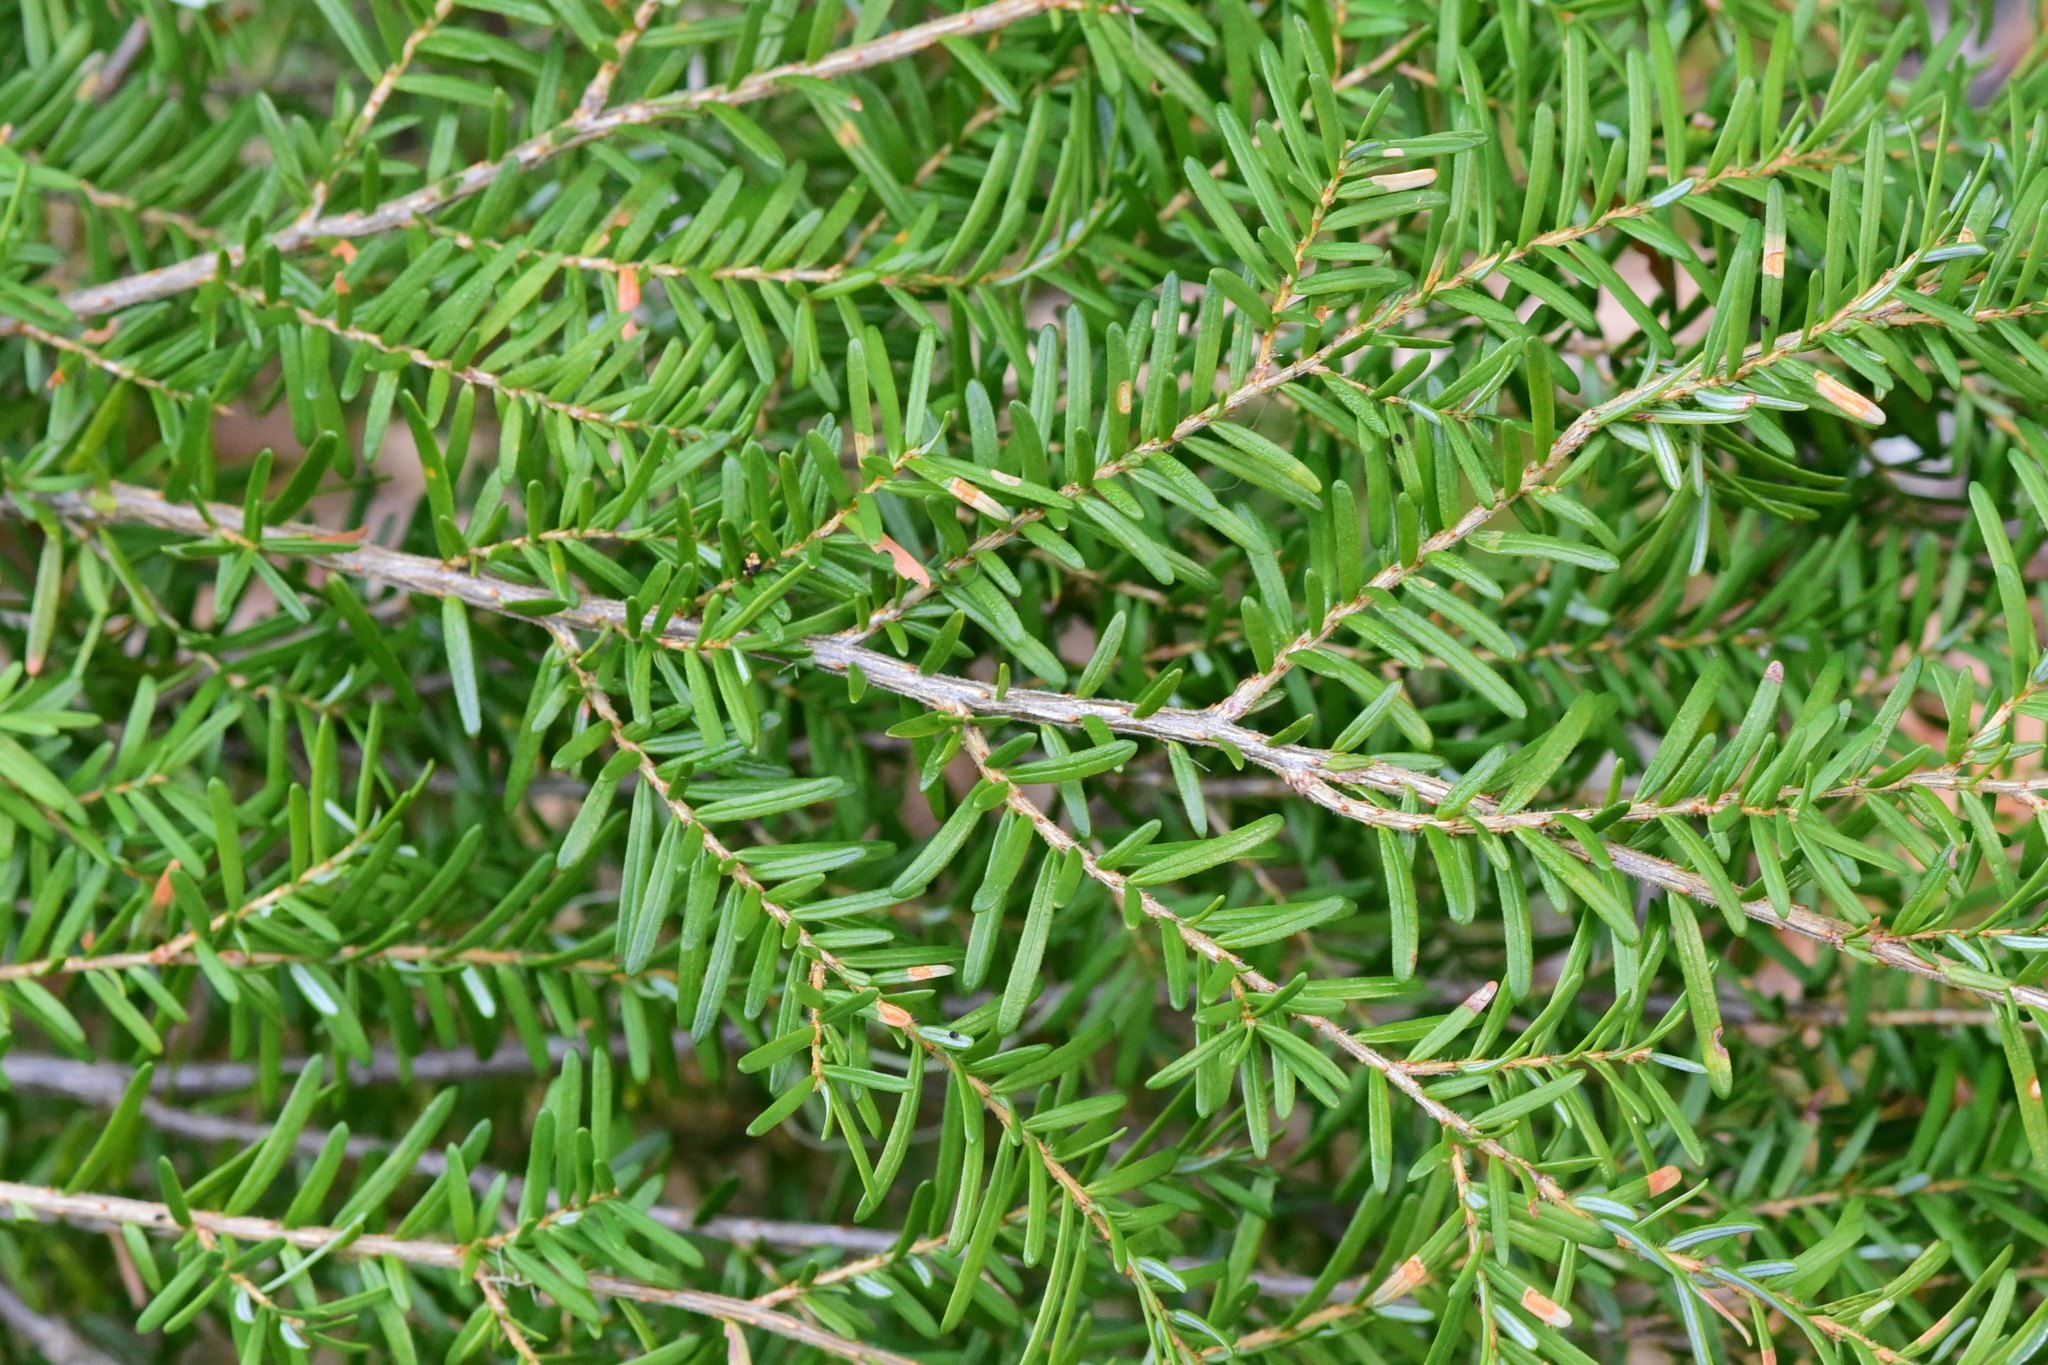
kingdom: Plantae
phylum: Tracheophyta
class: Pinopsida
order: Pinales
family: Pinaceae
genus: Tsuga
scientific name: Tsuga heterophylla
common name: Western hemlock
